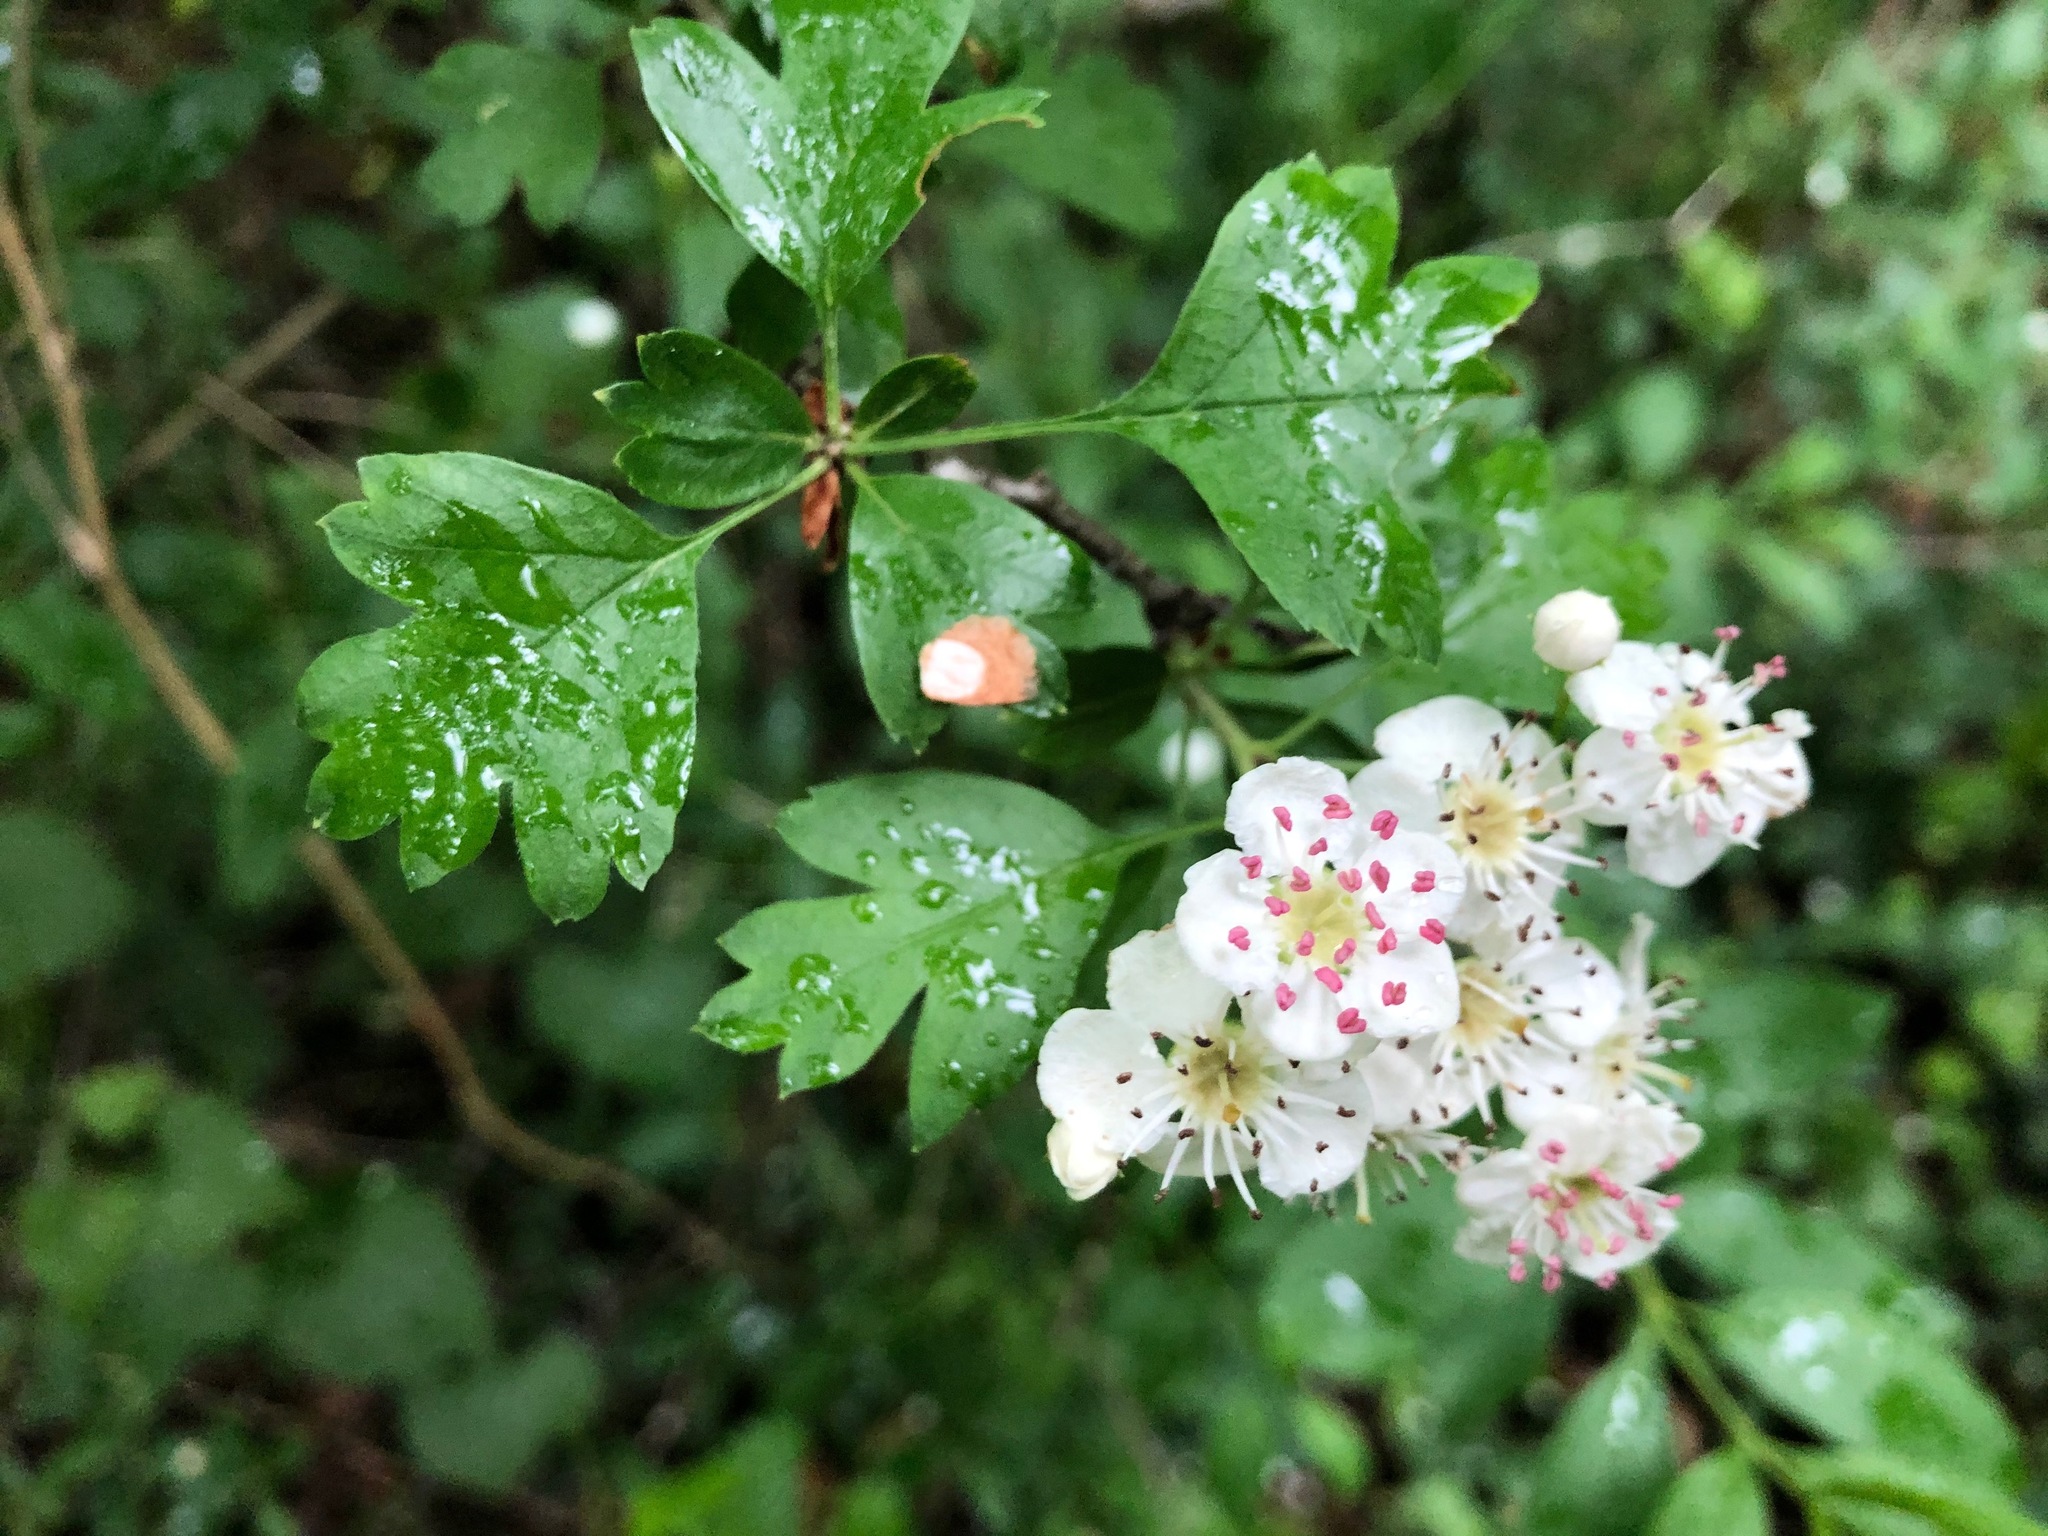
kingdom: Plantae
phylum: Tracheophyta
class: Magnoliopsida
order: Rosales
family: Rosaceae
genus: Crataegus
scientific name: Crataegus monogyna
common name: Hawthorn
